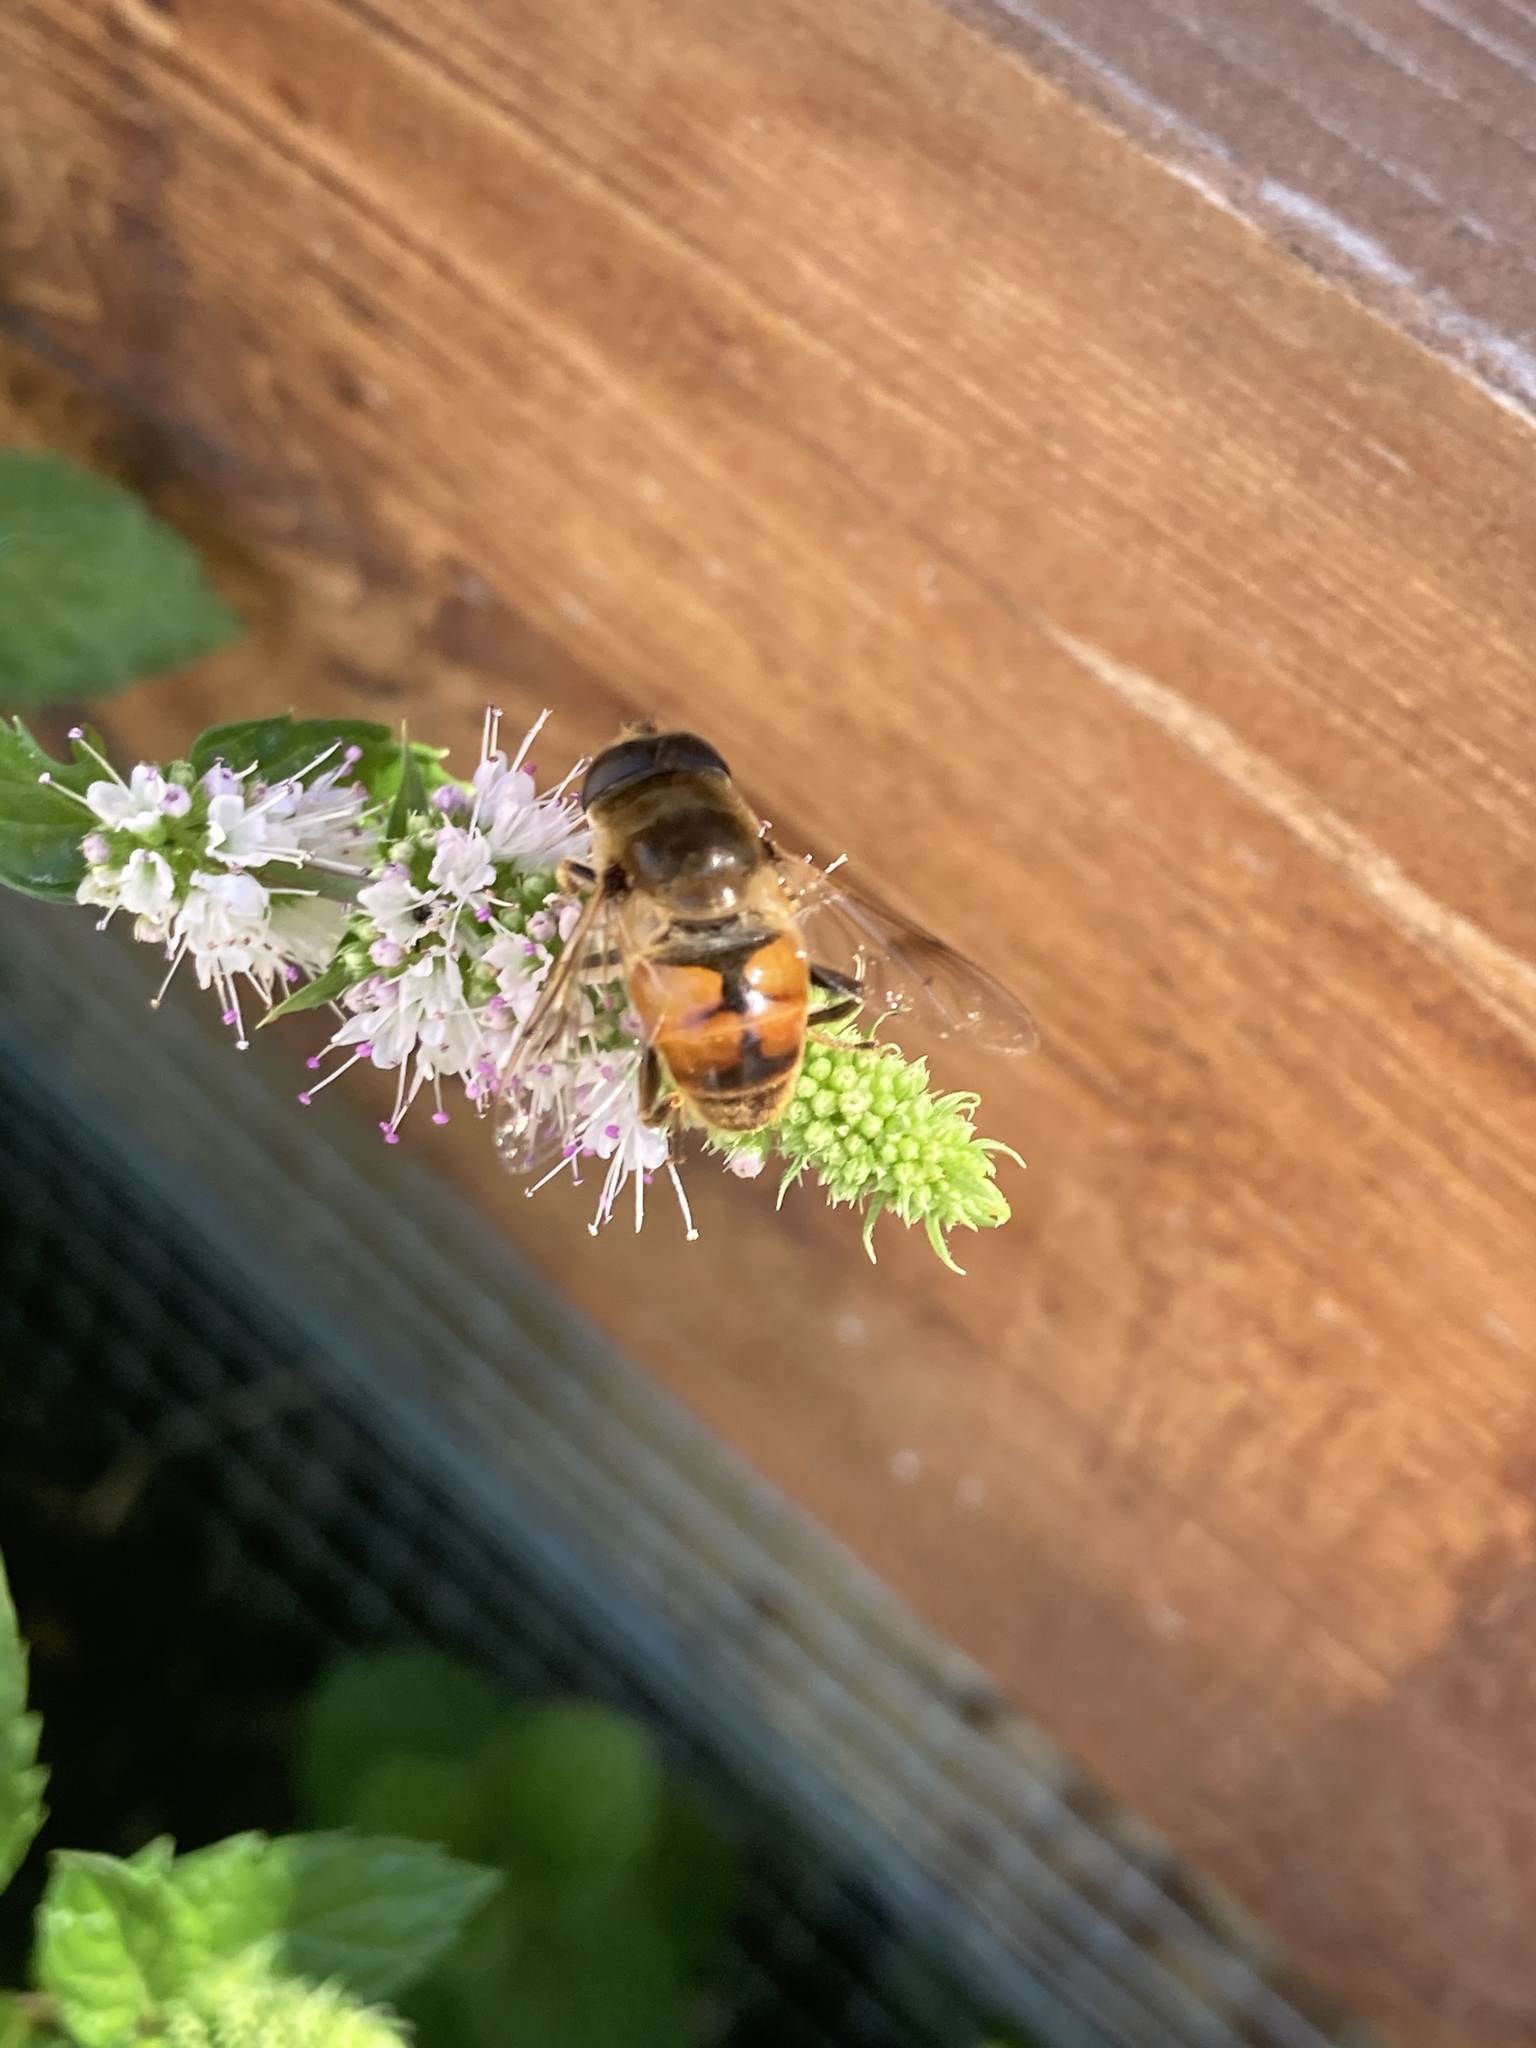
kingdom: Animalia
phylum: Arthropoda
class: Insecta
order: Diptera
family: Syrphidae
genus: Eristalis
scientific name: Eristalis tenax
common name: Drone fly
